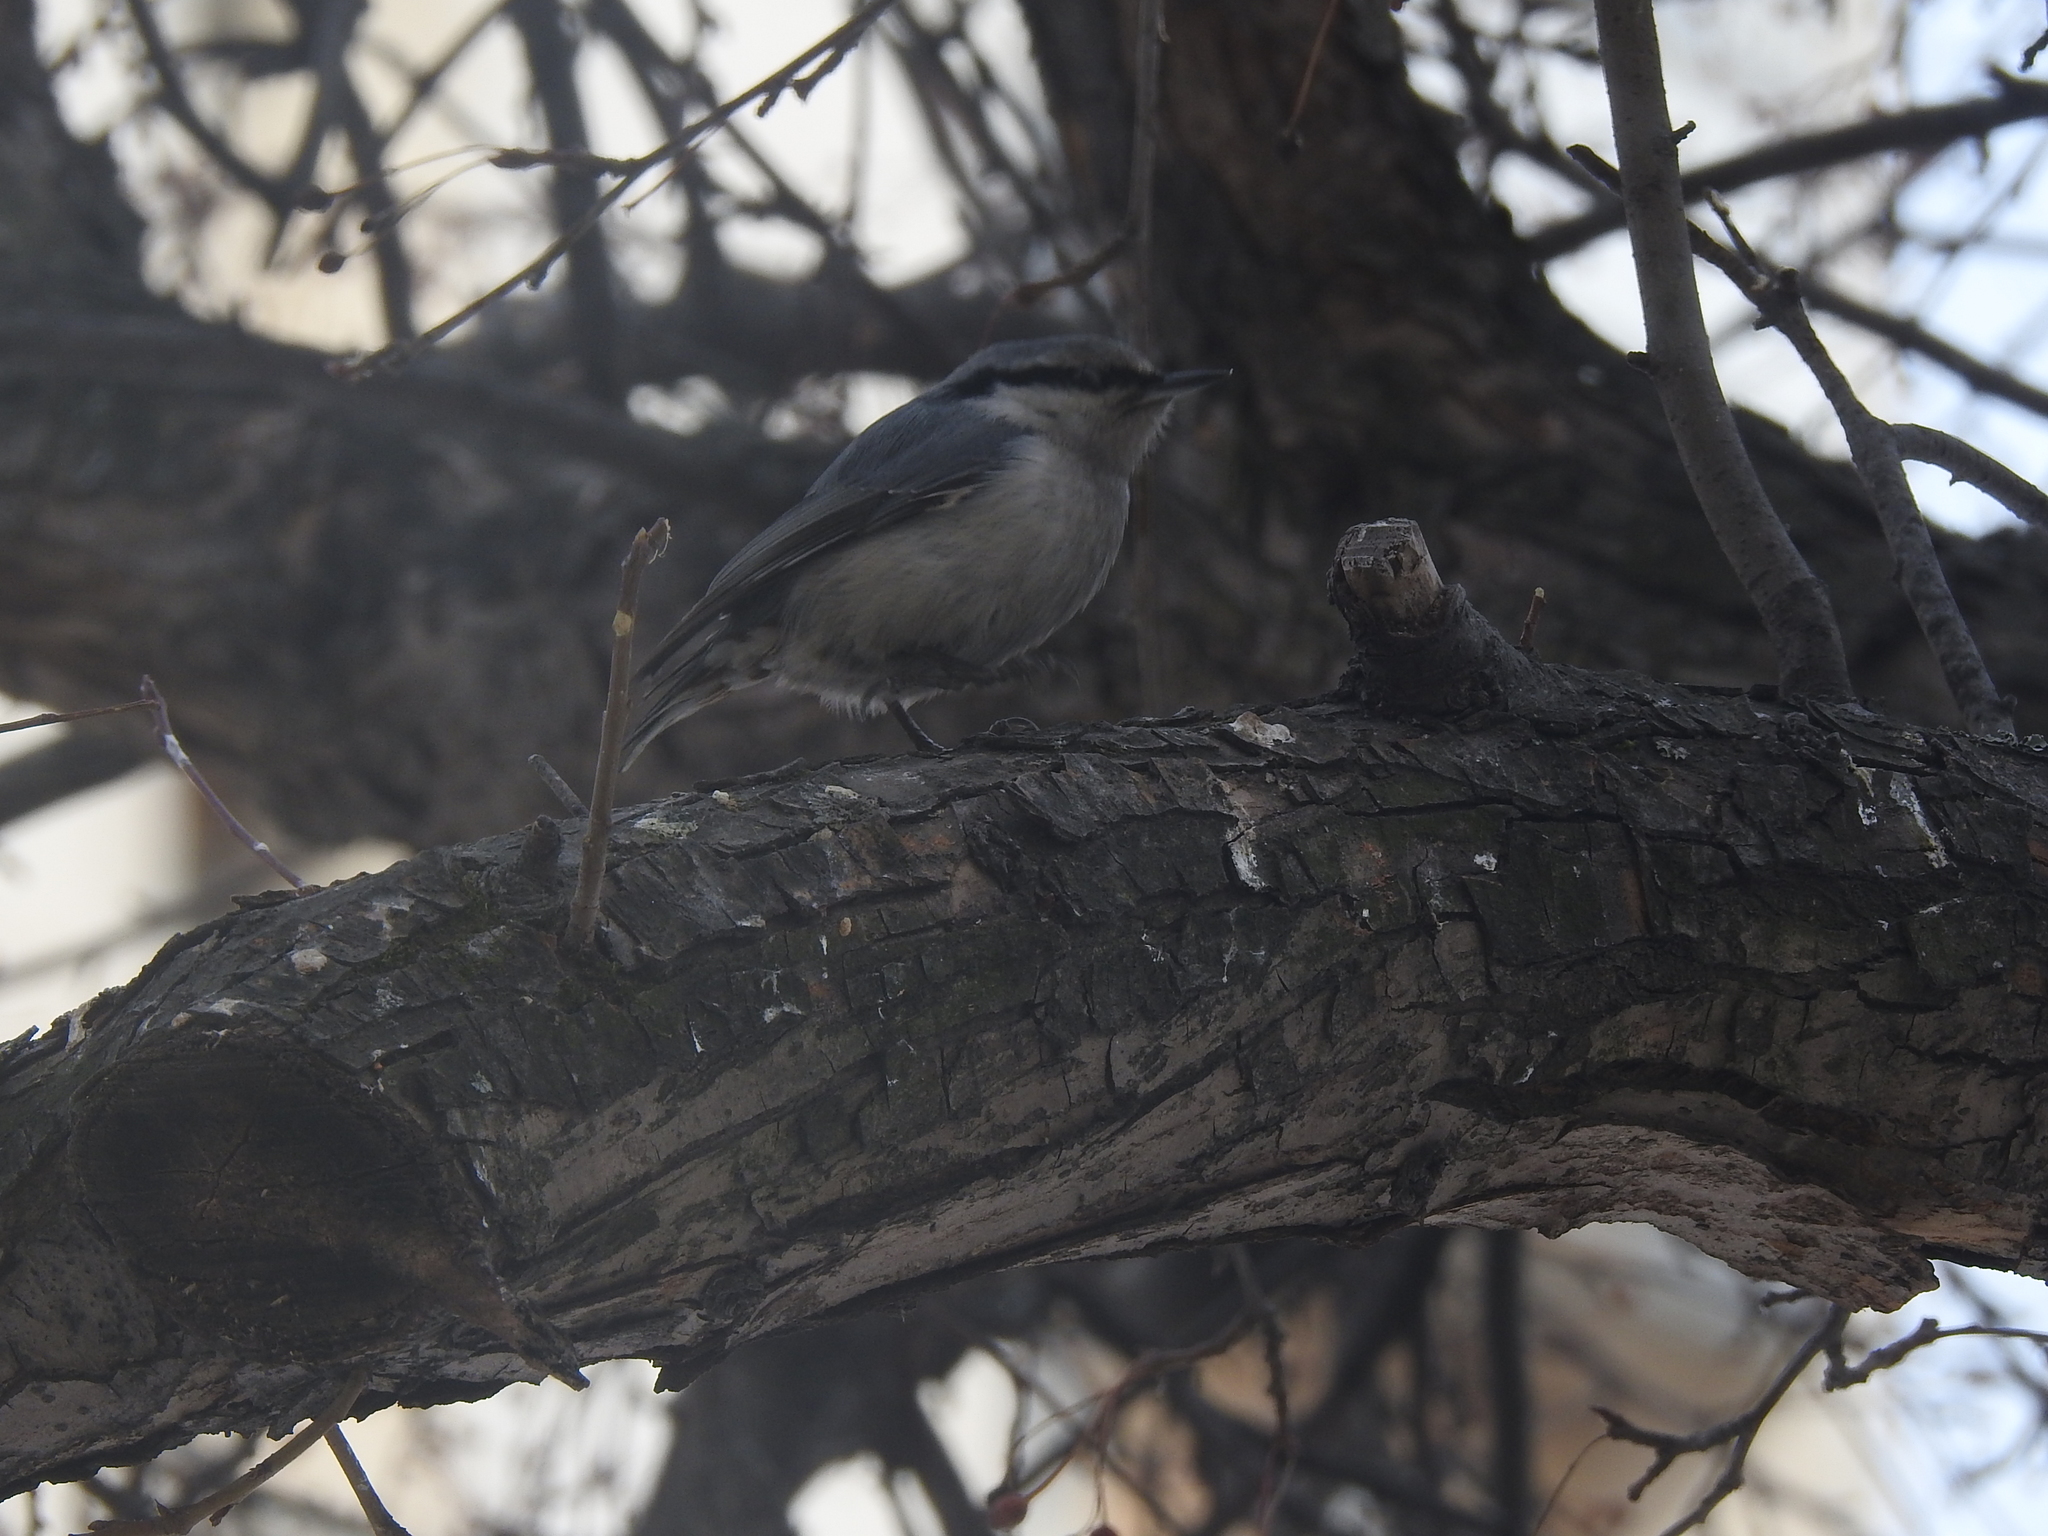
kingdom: Animalia
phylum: Chordata
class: Aves
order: Passeriformes
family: Sittidae
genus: Sitta
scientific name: Sitta europaea
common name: Eurasian nuthatch
